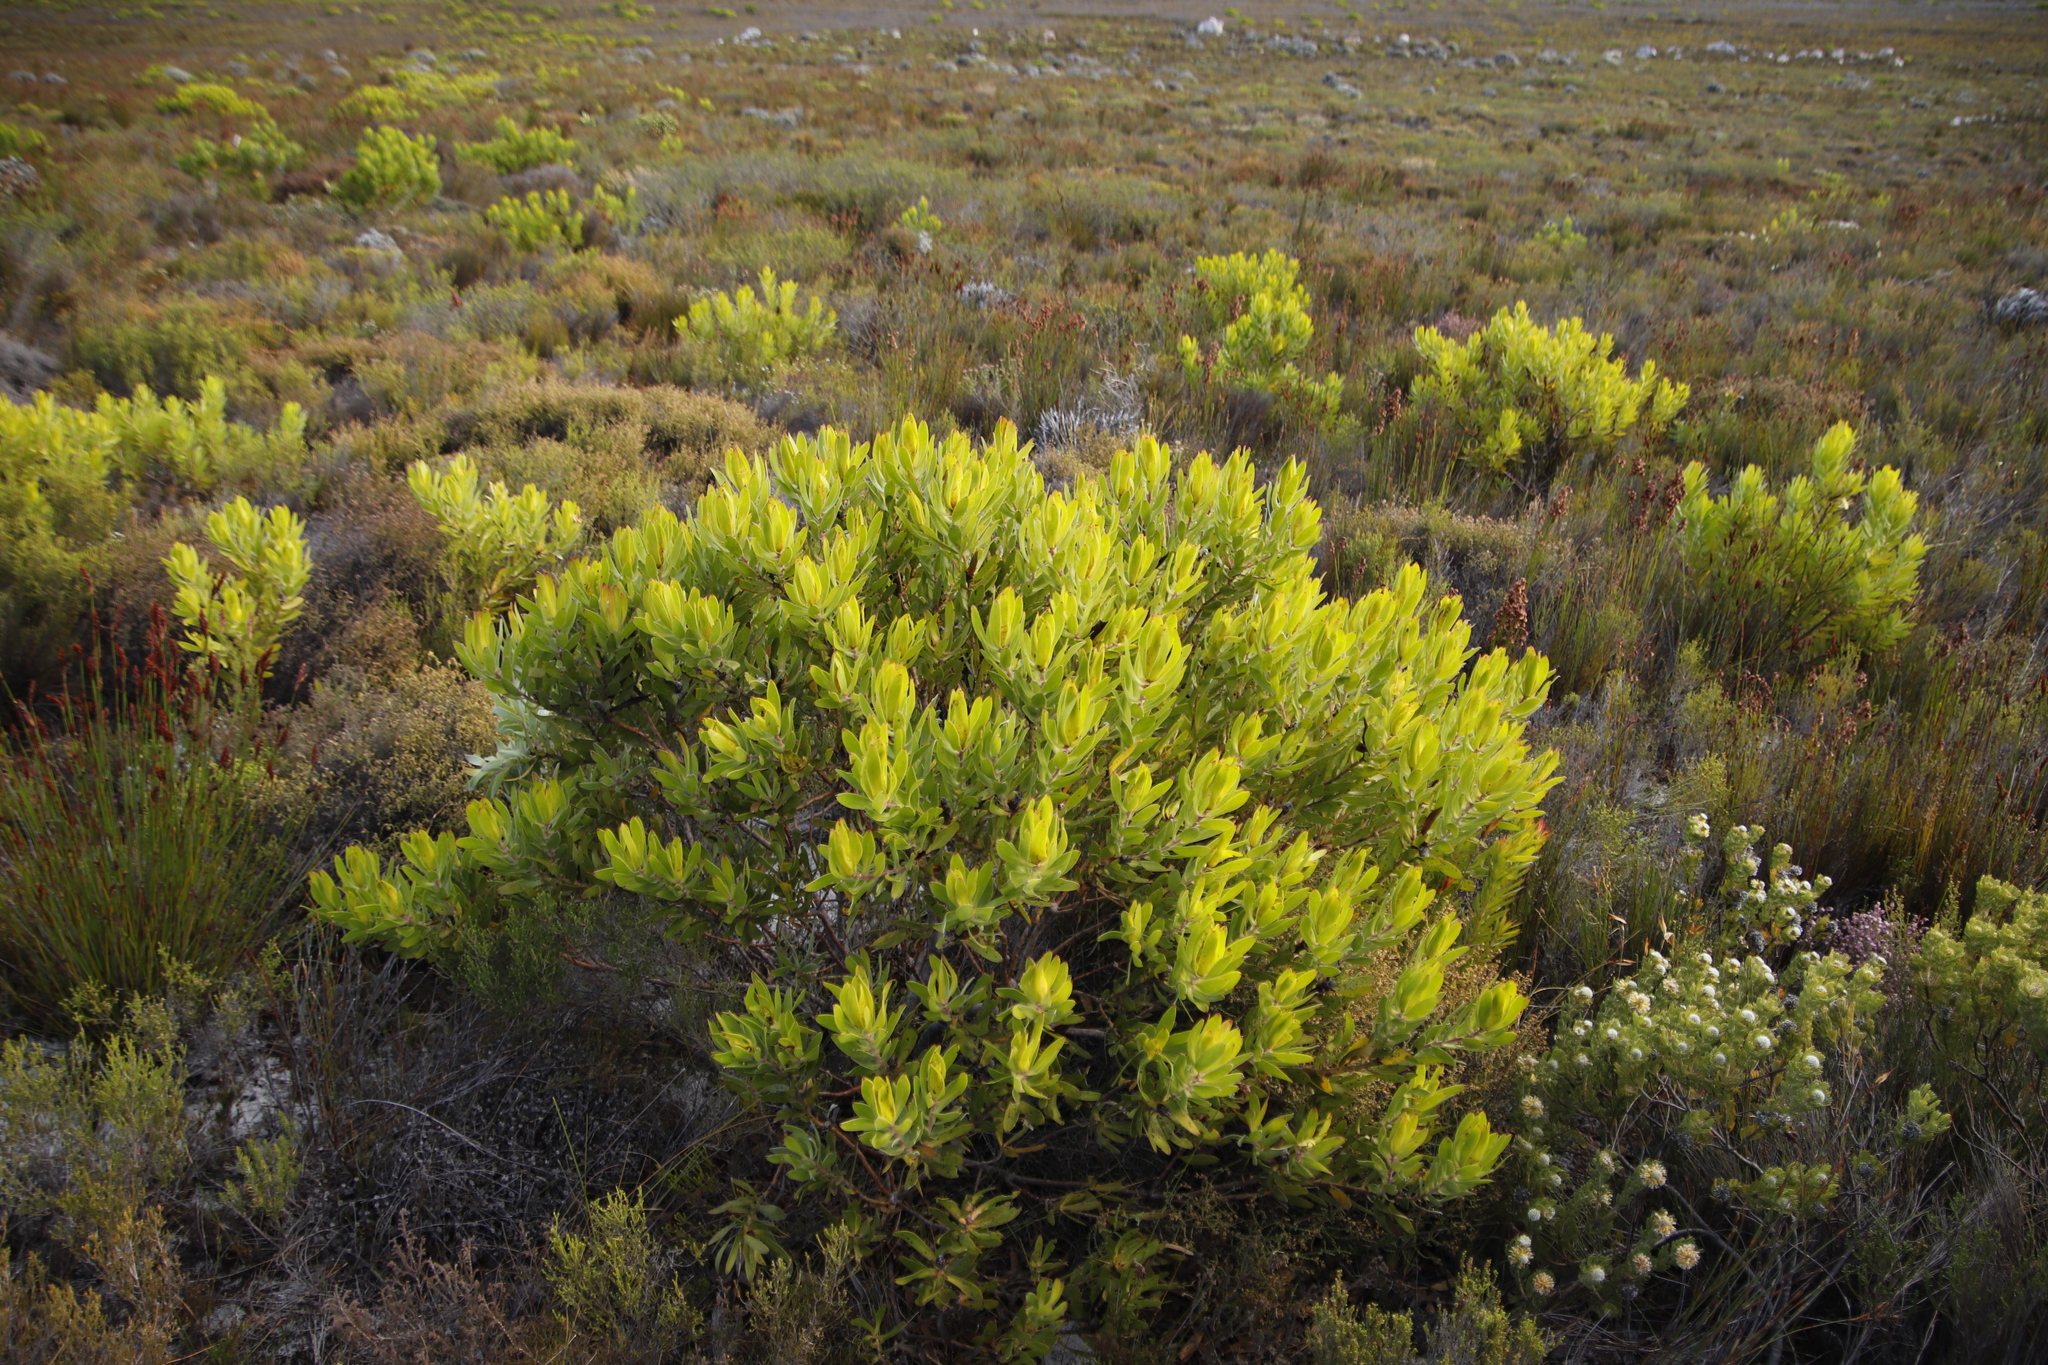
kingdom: Plantae
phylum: Tracheophyta
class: Magnoliopsida
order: Proteales
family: Proteaceae
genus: Leucadendron
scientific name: Leucadendron laureolum
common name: Golden sunshinebush
